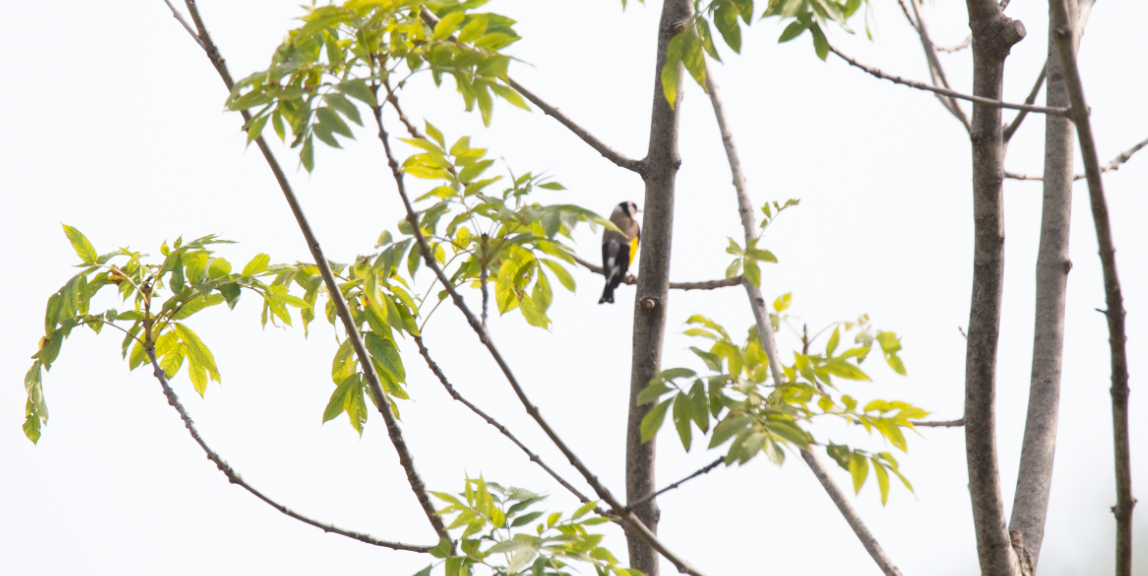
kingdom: Animalia
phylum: Chordata
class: Aves
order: Passeriformes
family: Fringillidae
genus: Carduelis
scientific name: Carduelis carduelis
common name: European goldfinch
